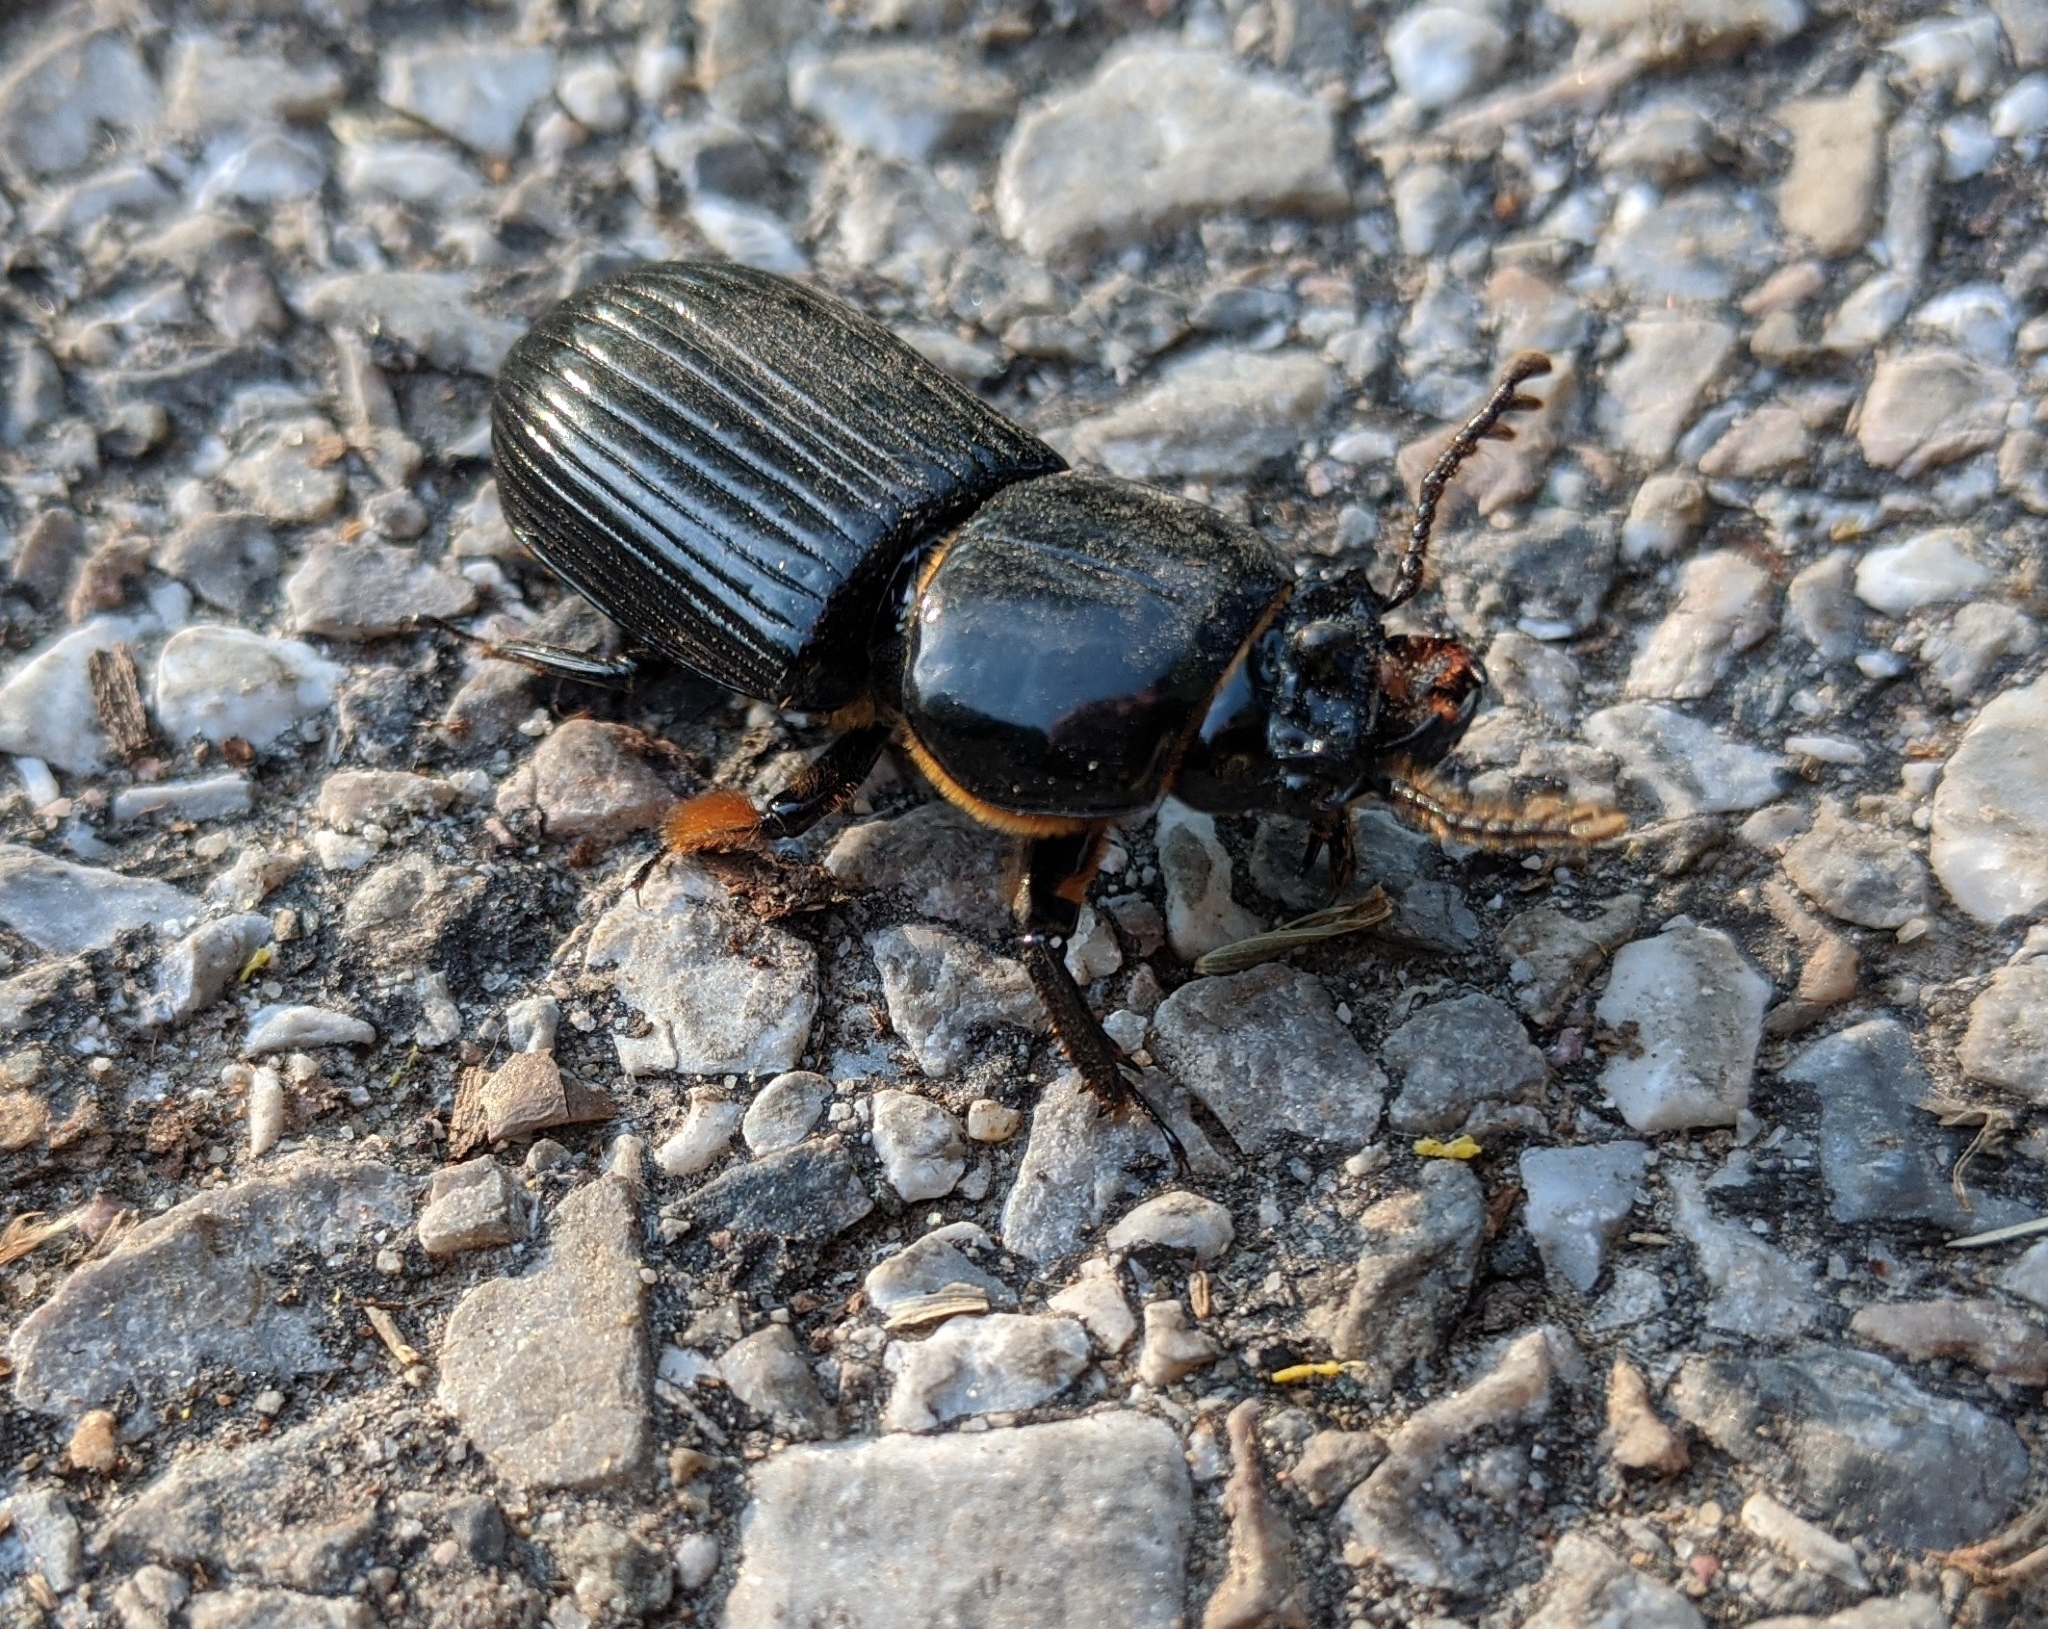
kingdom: Animalia
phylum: Arthropoda
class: Insecta
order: Coleoptera
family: Passalidae
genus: Odontotaenius
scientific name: Odontotaenius disjunctus
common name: Patent leather beetle
